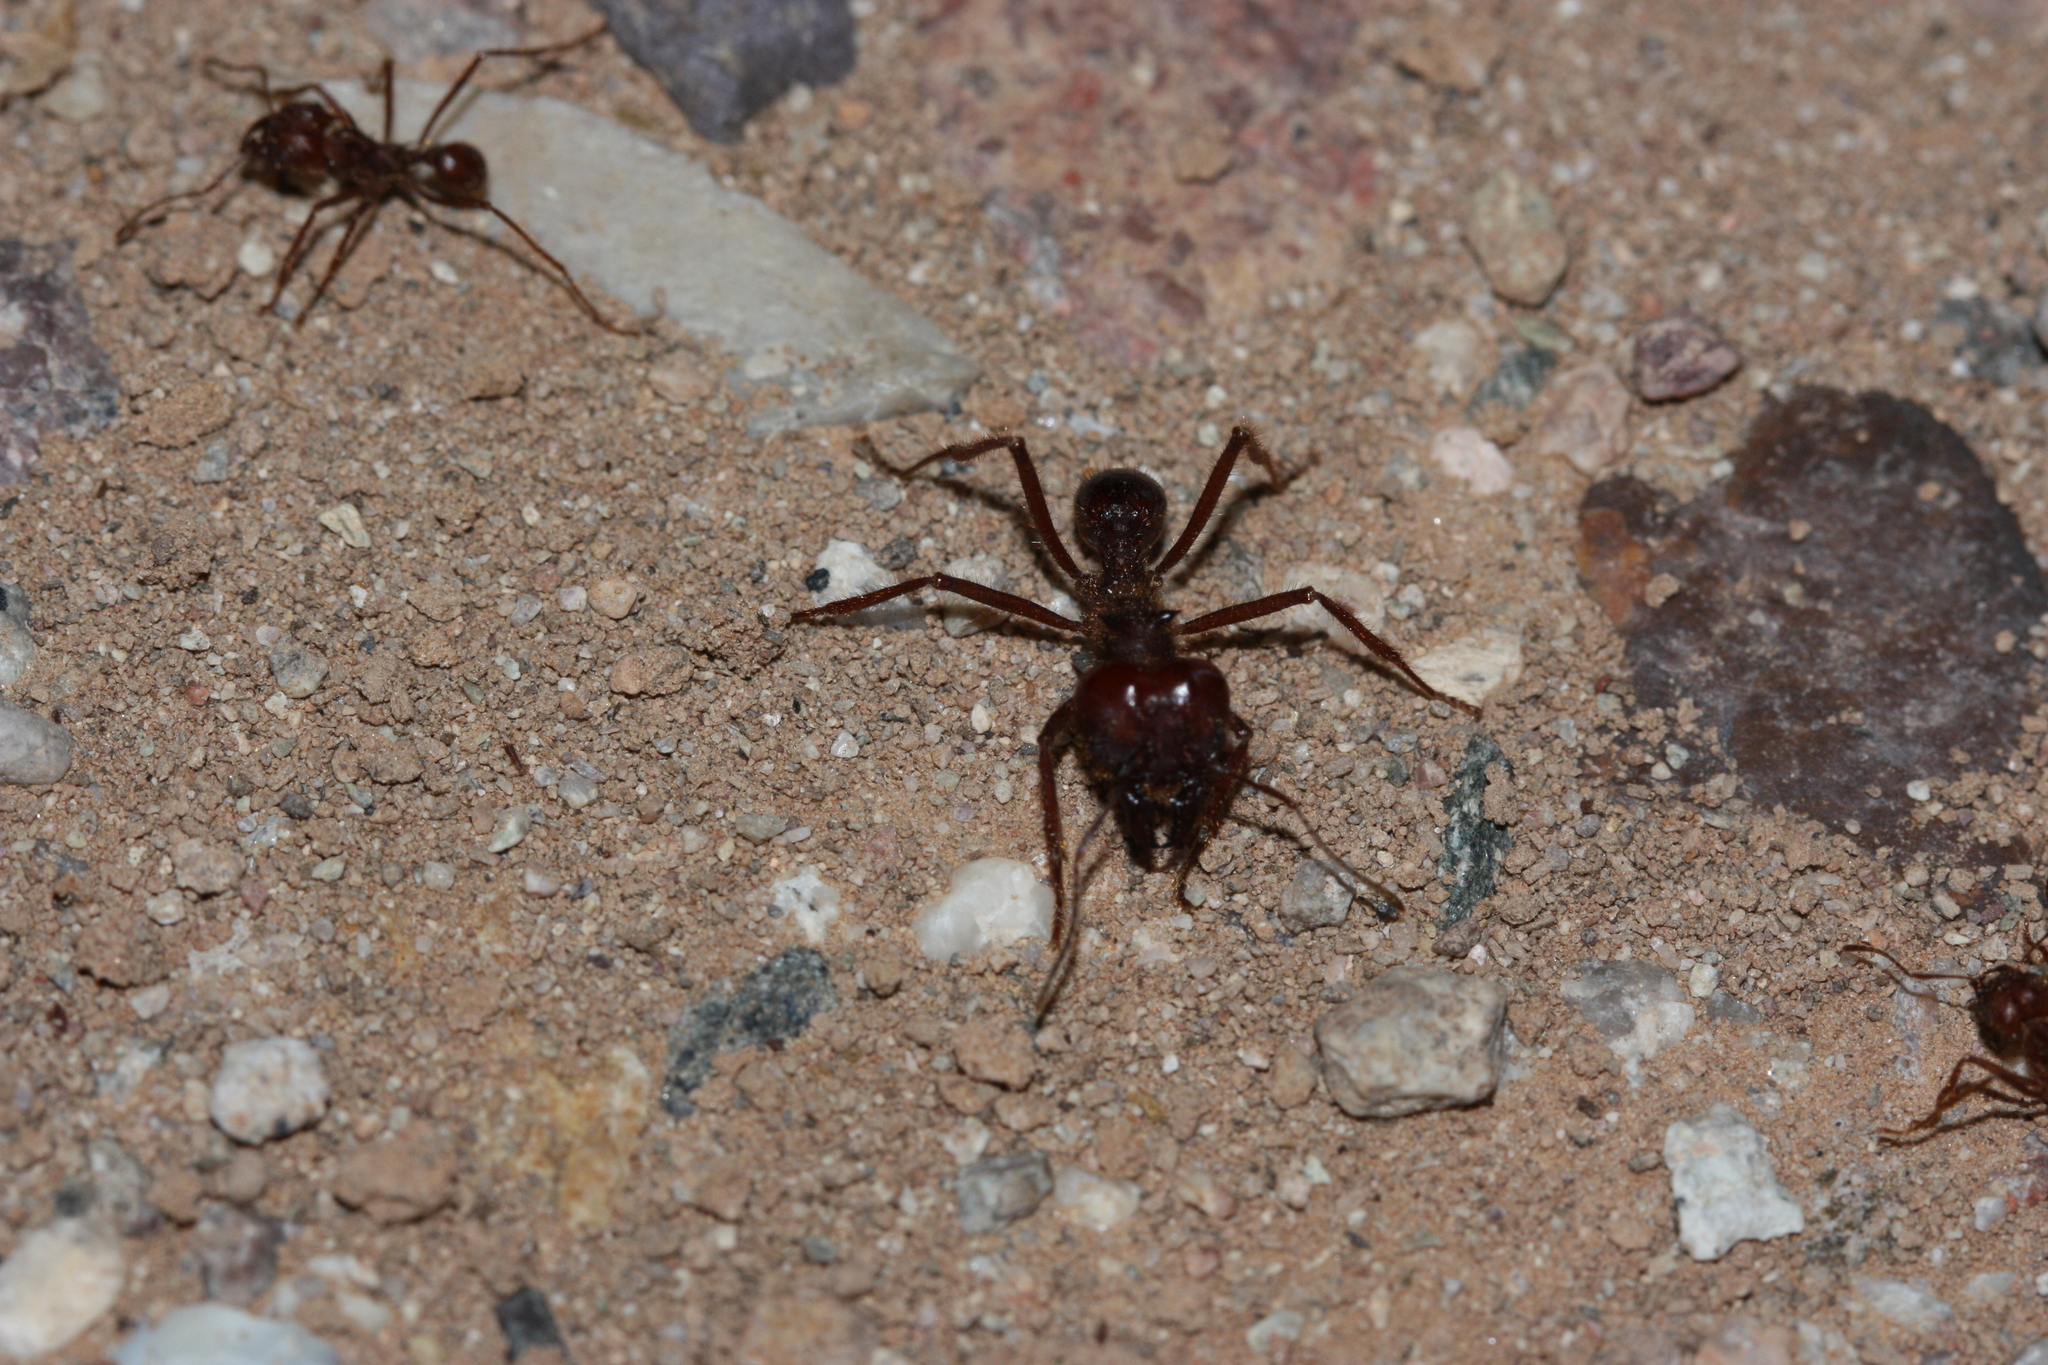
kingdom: Animalia
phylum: Arthropoda
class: Insecta
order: Hymenoptera
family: Formicidae
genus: Atta
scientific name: Atta mexicana
